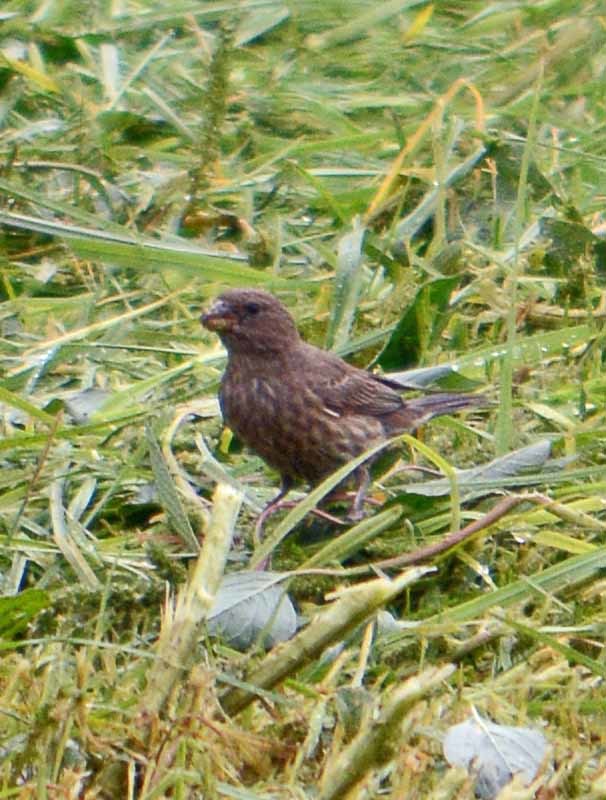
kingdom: Animalia
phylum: Chordata
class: Aves
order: Passeriformes
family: Fringillidae
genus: Haemorhous
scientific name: Haemorhous mexicanus
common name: House finch
